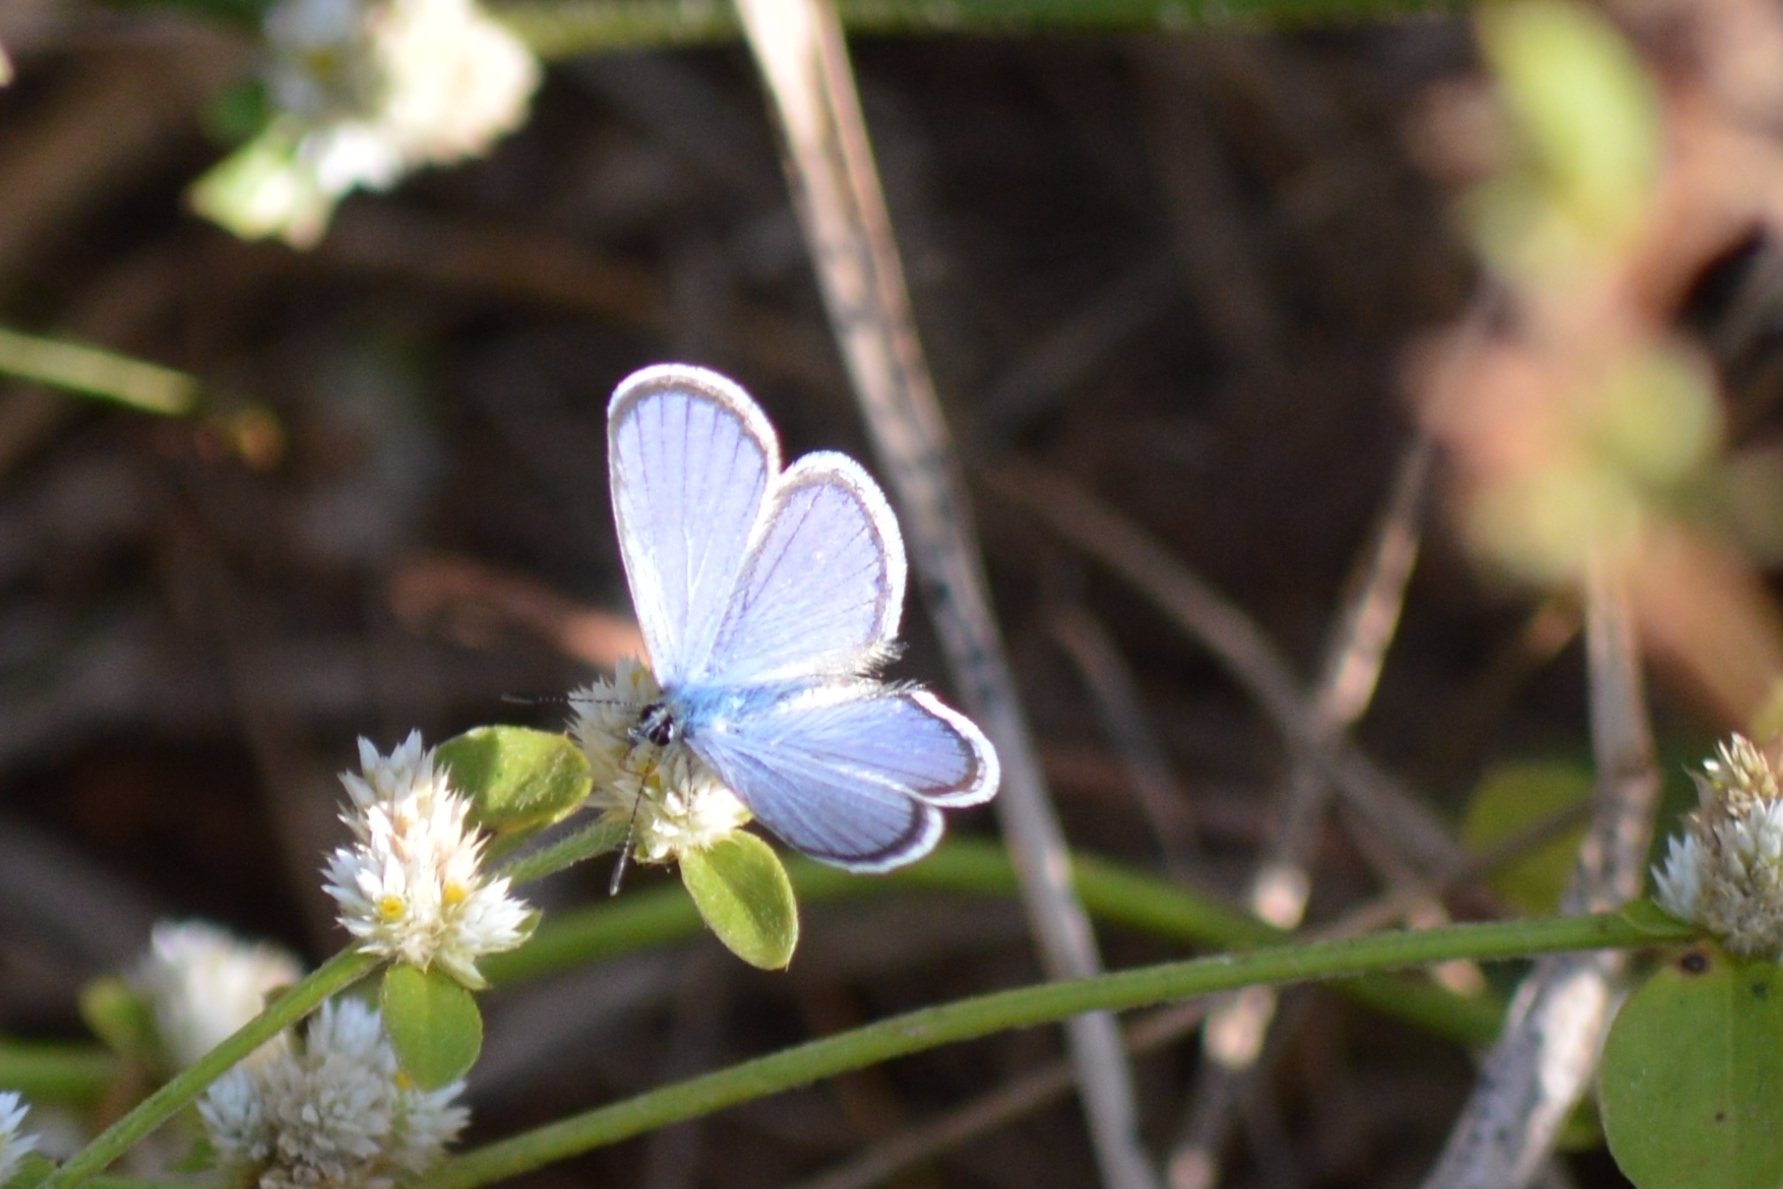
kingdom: Animalia
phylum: Arthropoda
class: Insecta
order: Lepidoptera
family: Lycaenidae
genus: Hemiargus
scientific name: Hemiargus hanno
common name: Common blue
